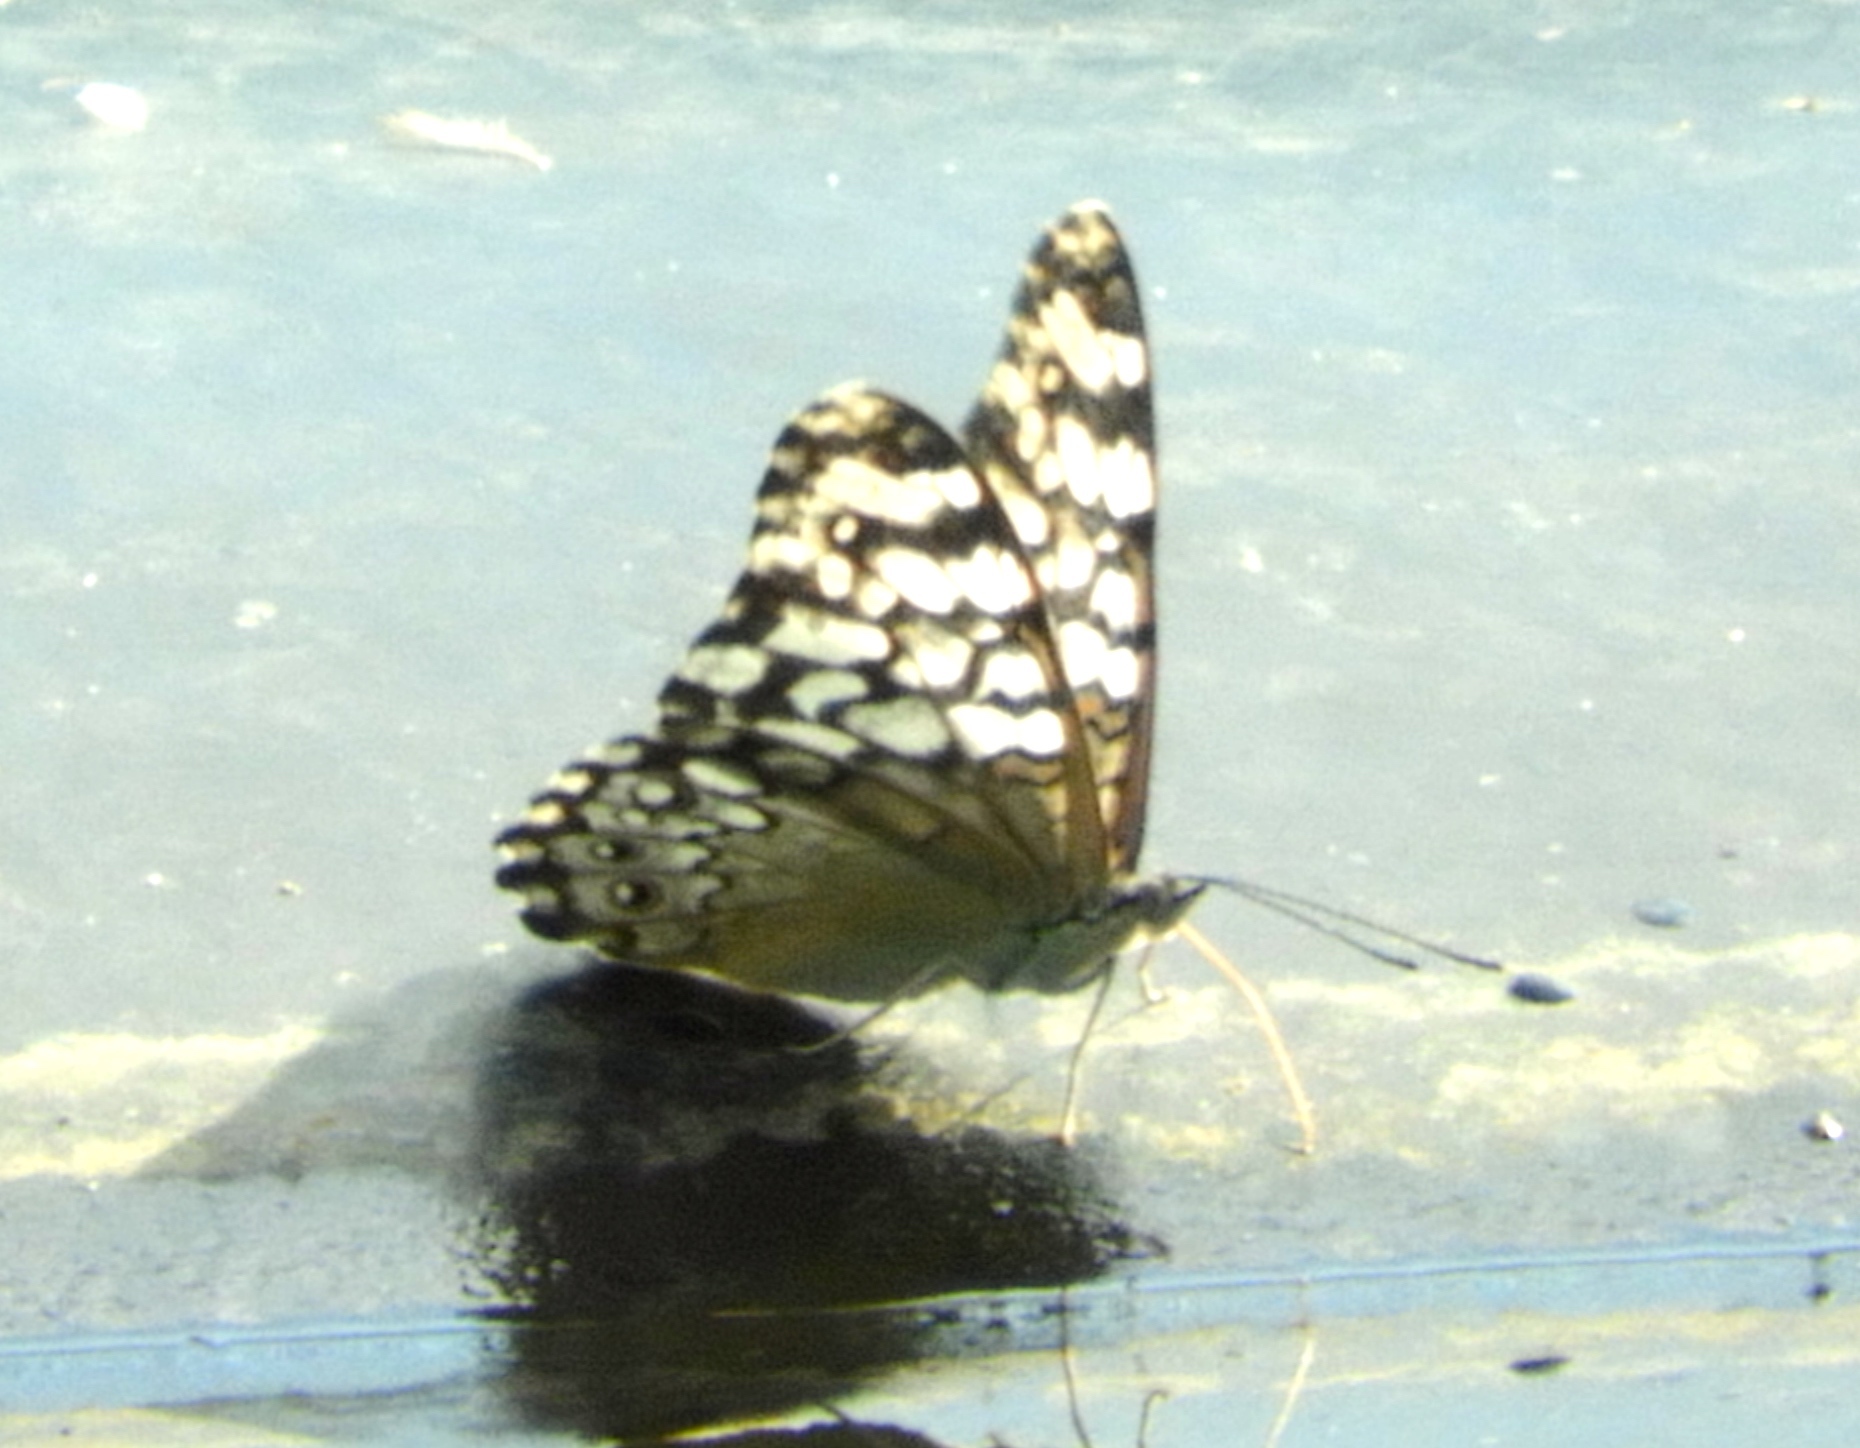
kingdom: Animalia
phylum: Arthropoda
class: Insecta
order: Lepidoptera
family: Nymphalidae
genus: Hamadryas
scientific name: Hamadryas februa
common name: Gray cracker
